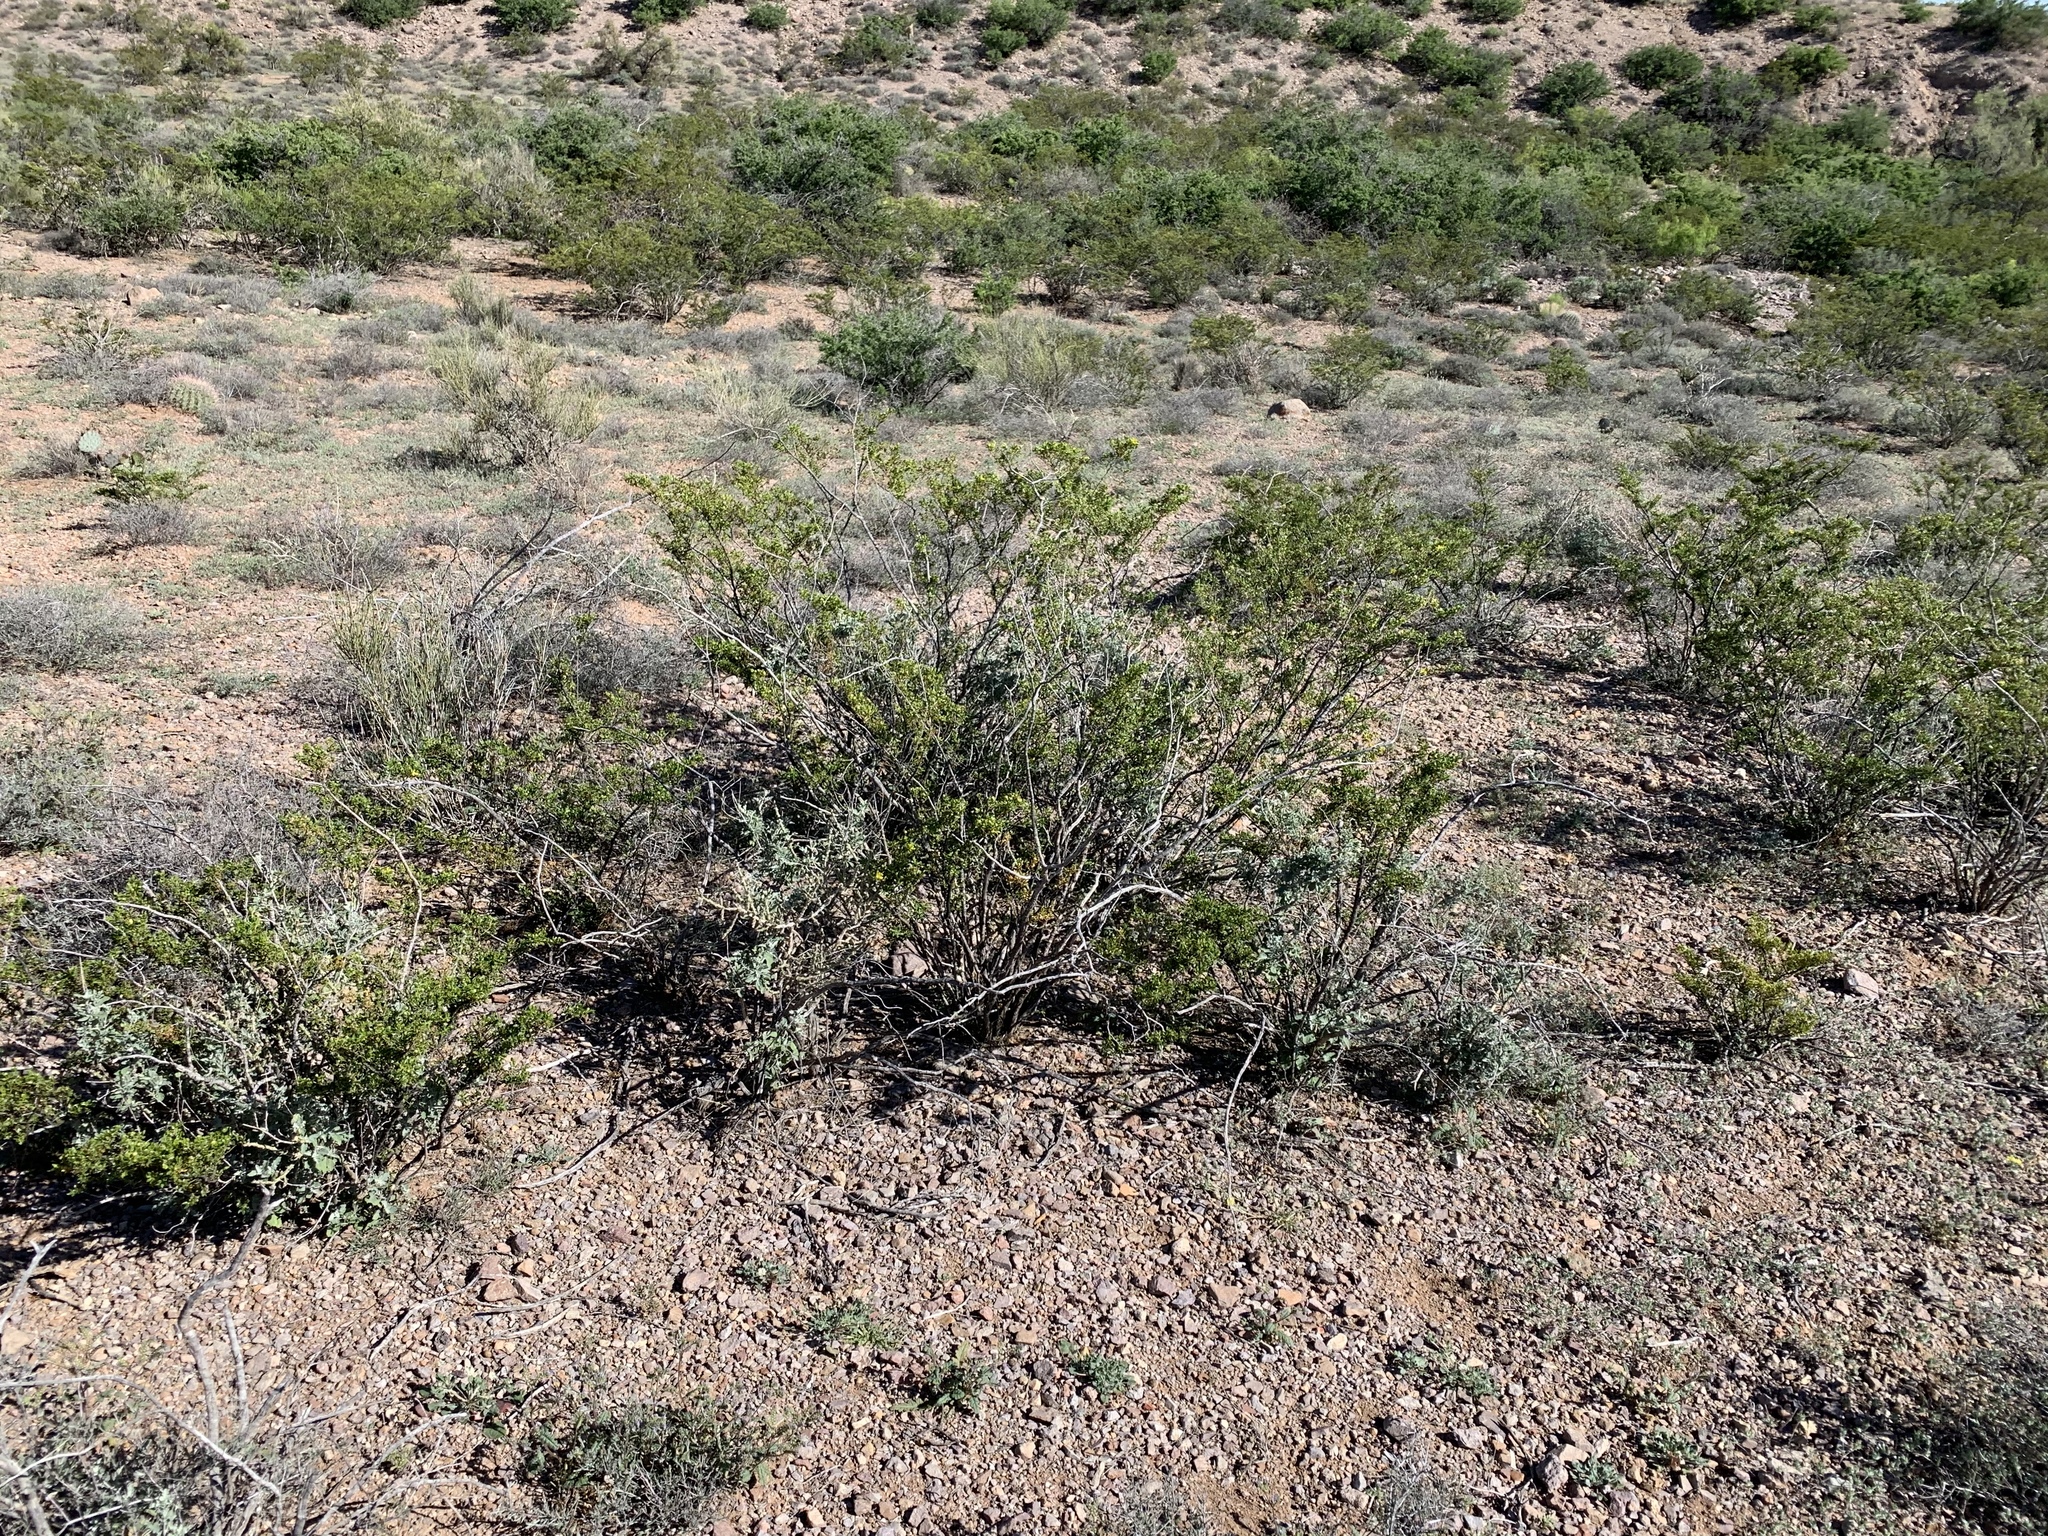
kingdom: Plantae
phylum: Tracheophyta
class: Magnoliopsida
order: Zygophyllales
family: Zygophyllaceae
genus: Larrea
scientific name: Larrea tridentata
